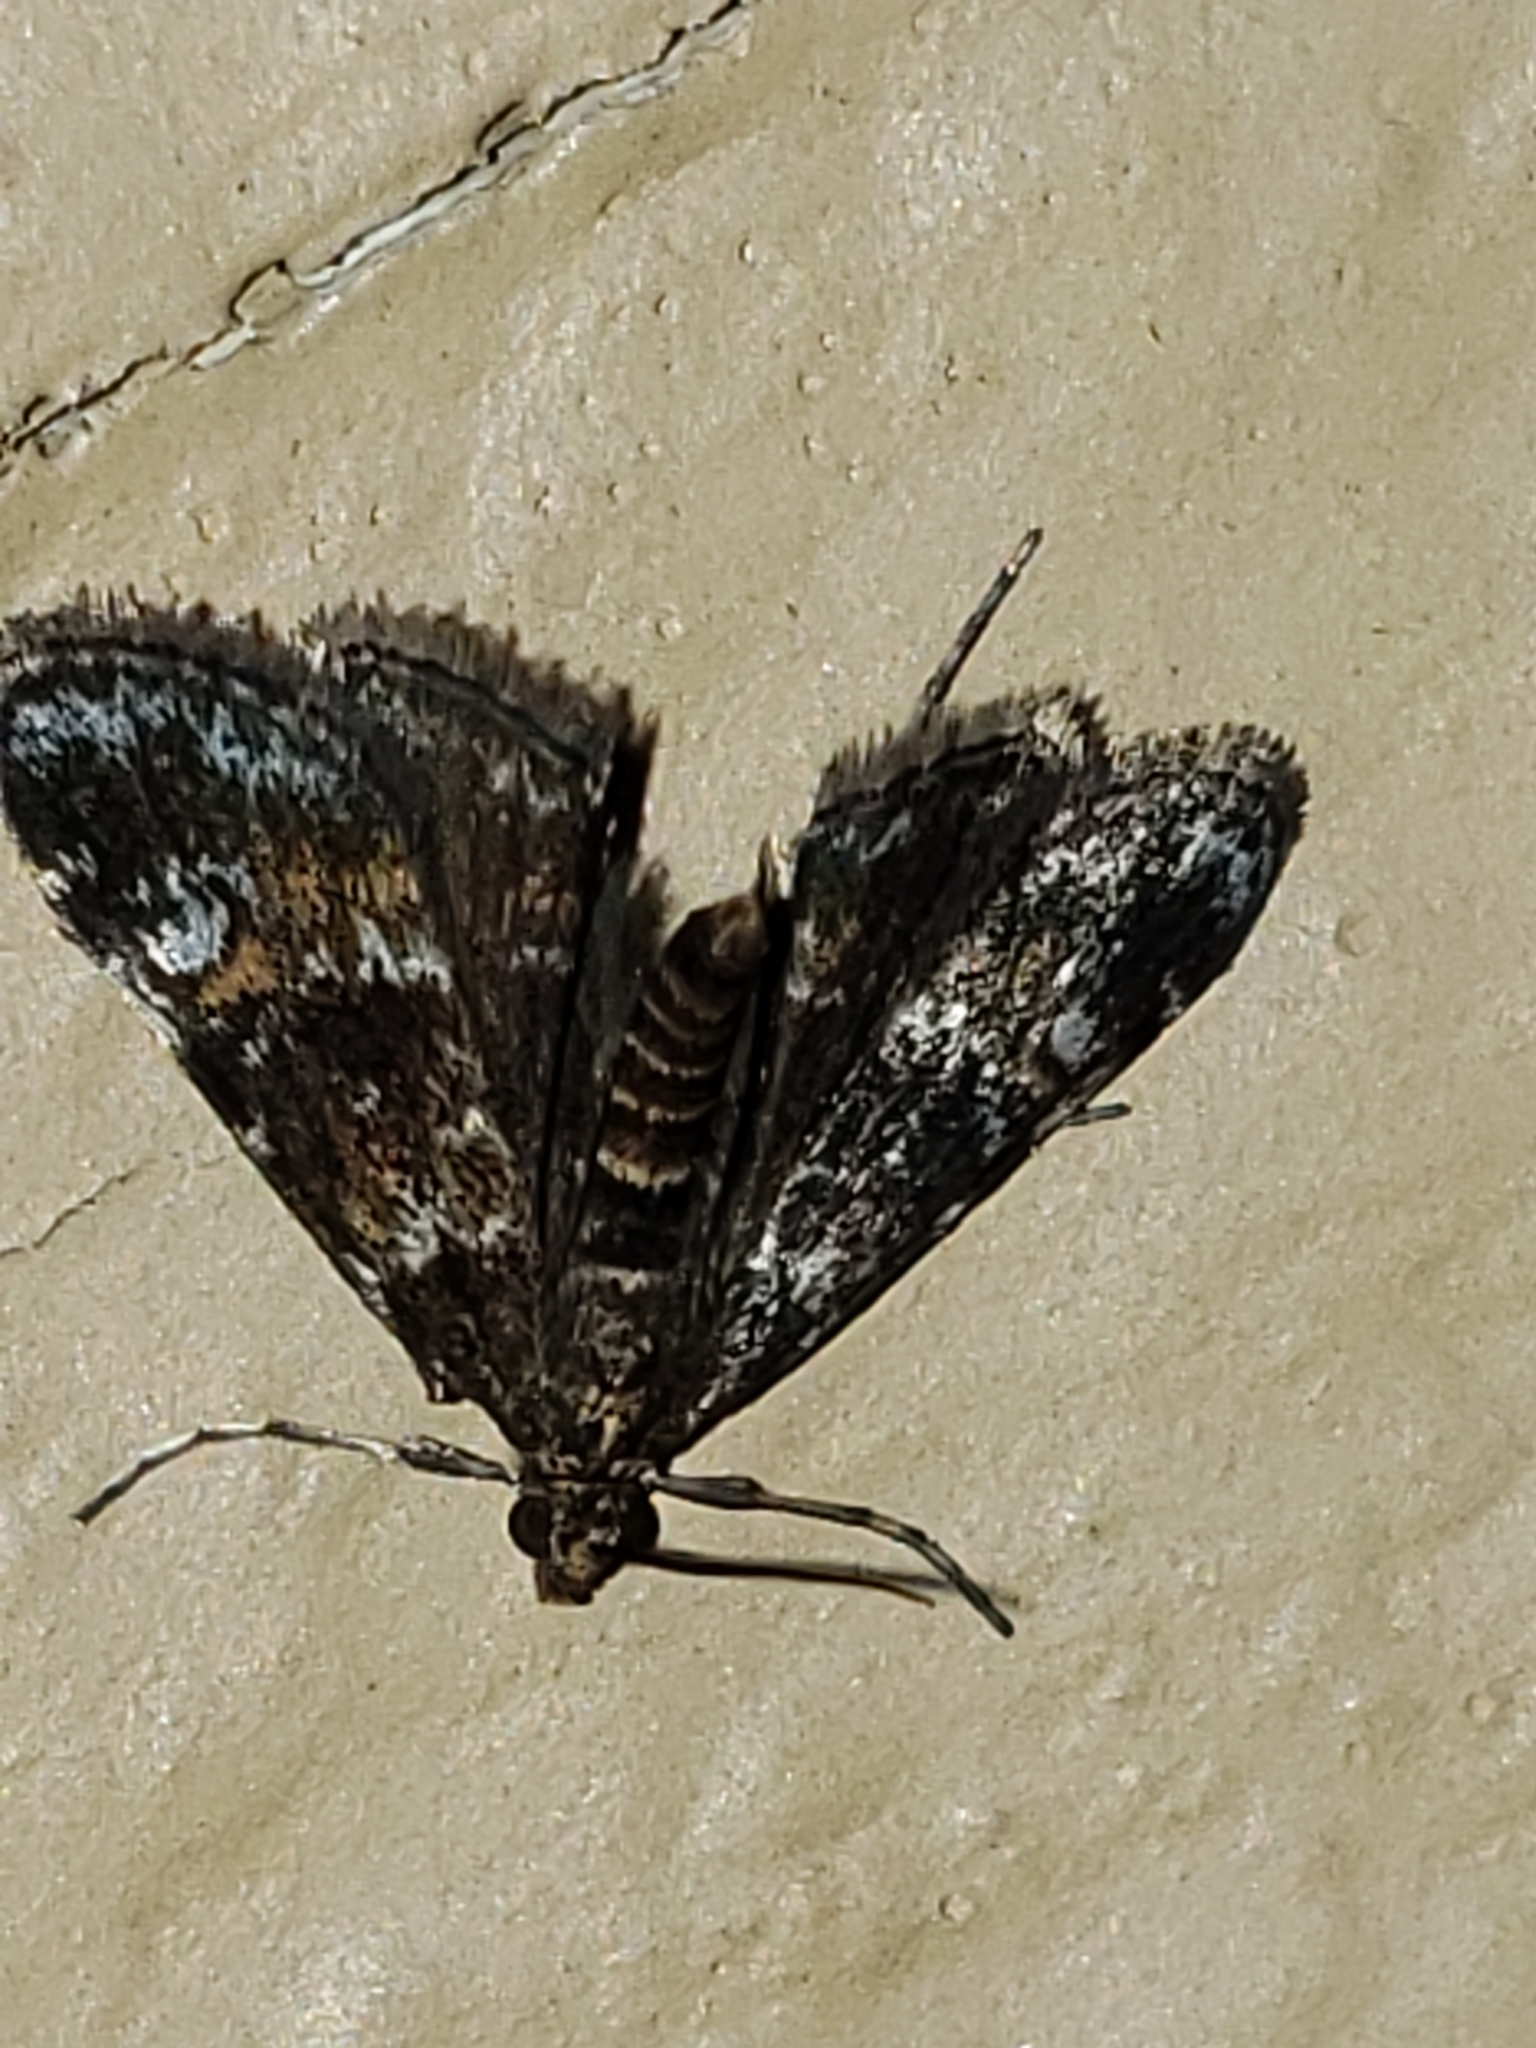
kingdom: Animalia
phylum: Arthropoda
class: Insecta
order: Lepidoptera
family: Crambidae
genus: Elophila
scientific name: Elophila obliteralis
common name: Waterlily leafcutter moth
